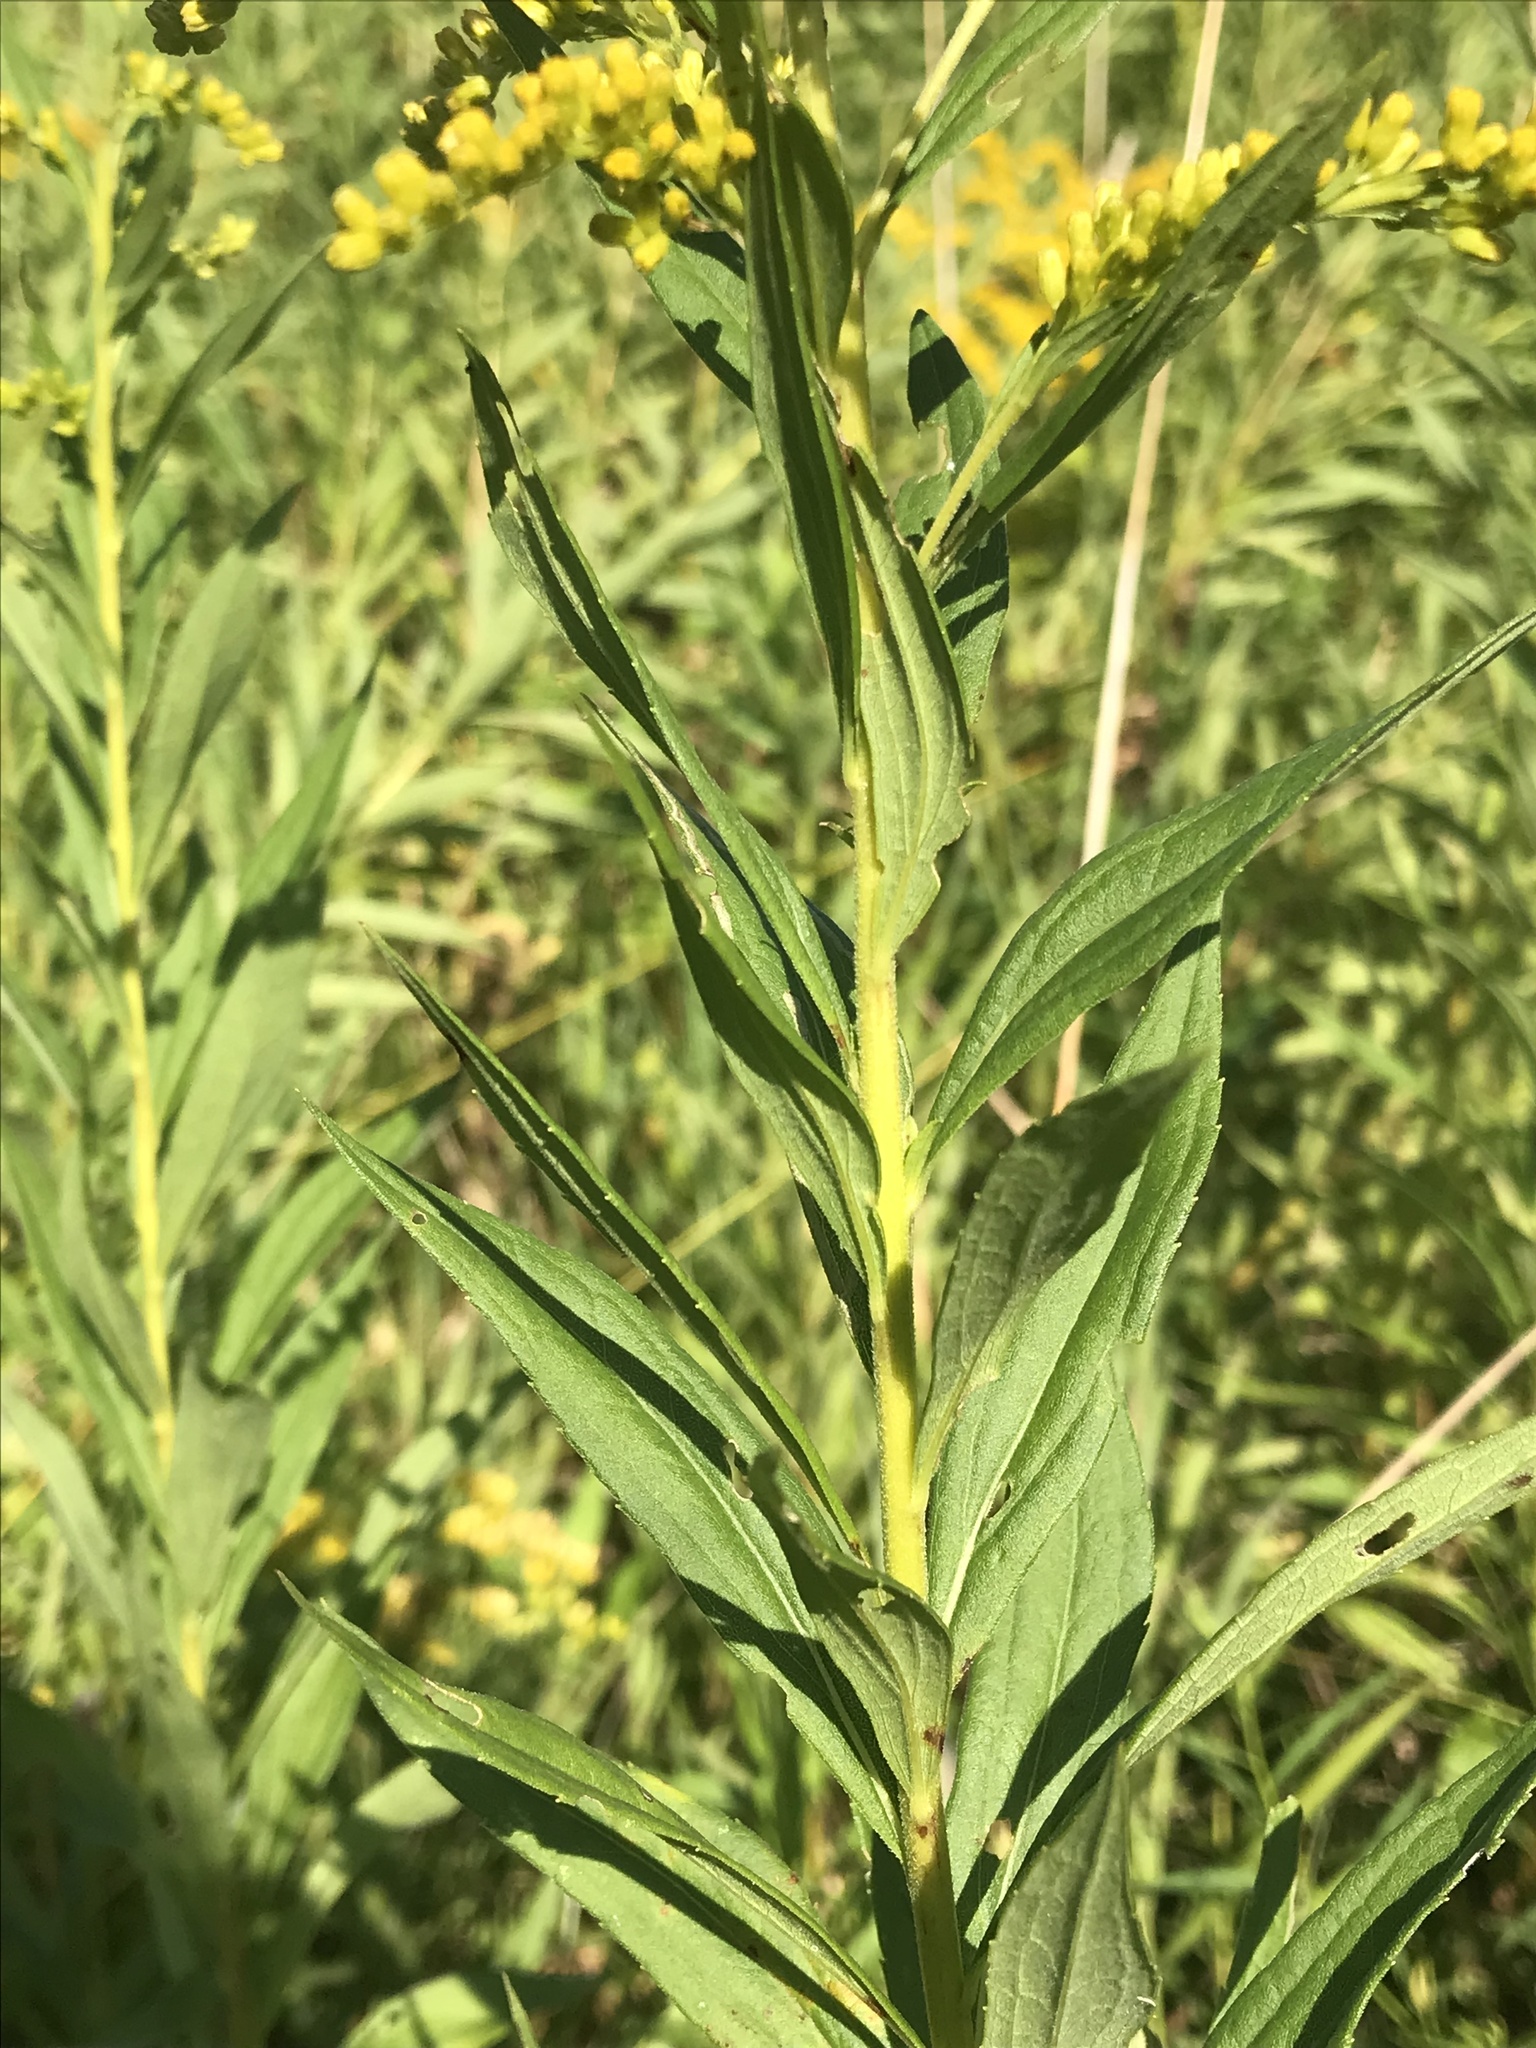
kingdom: Plantae
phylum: Tracheophyta
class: Magnoliopsida
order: Asterales
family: Asteraceae
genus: Solidago
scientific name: Solidago altissima
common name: Late goldenrod
